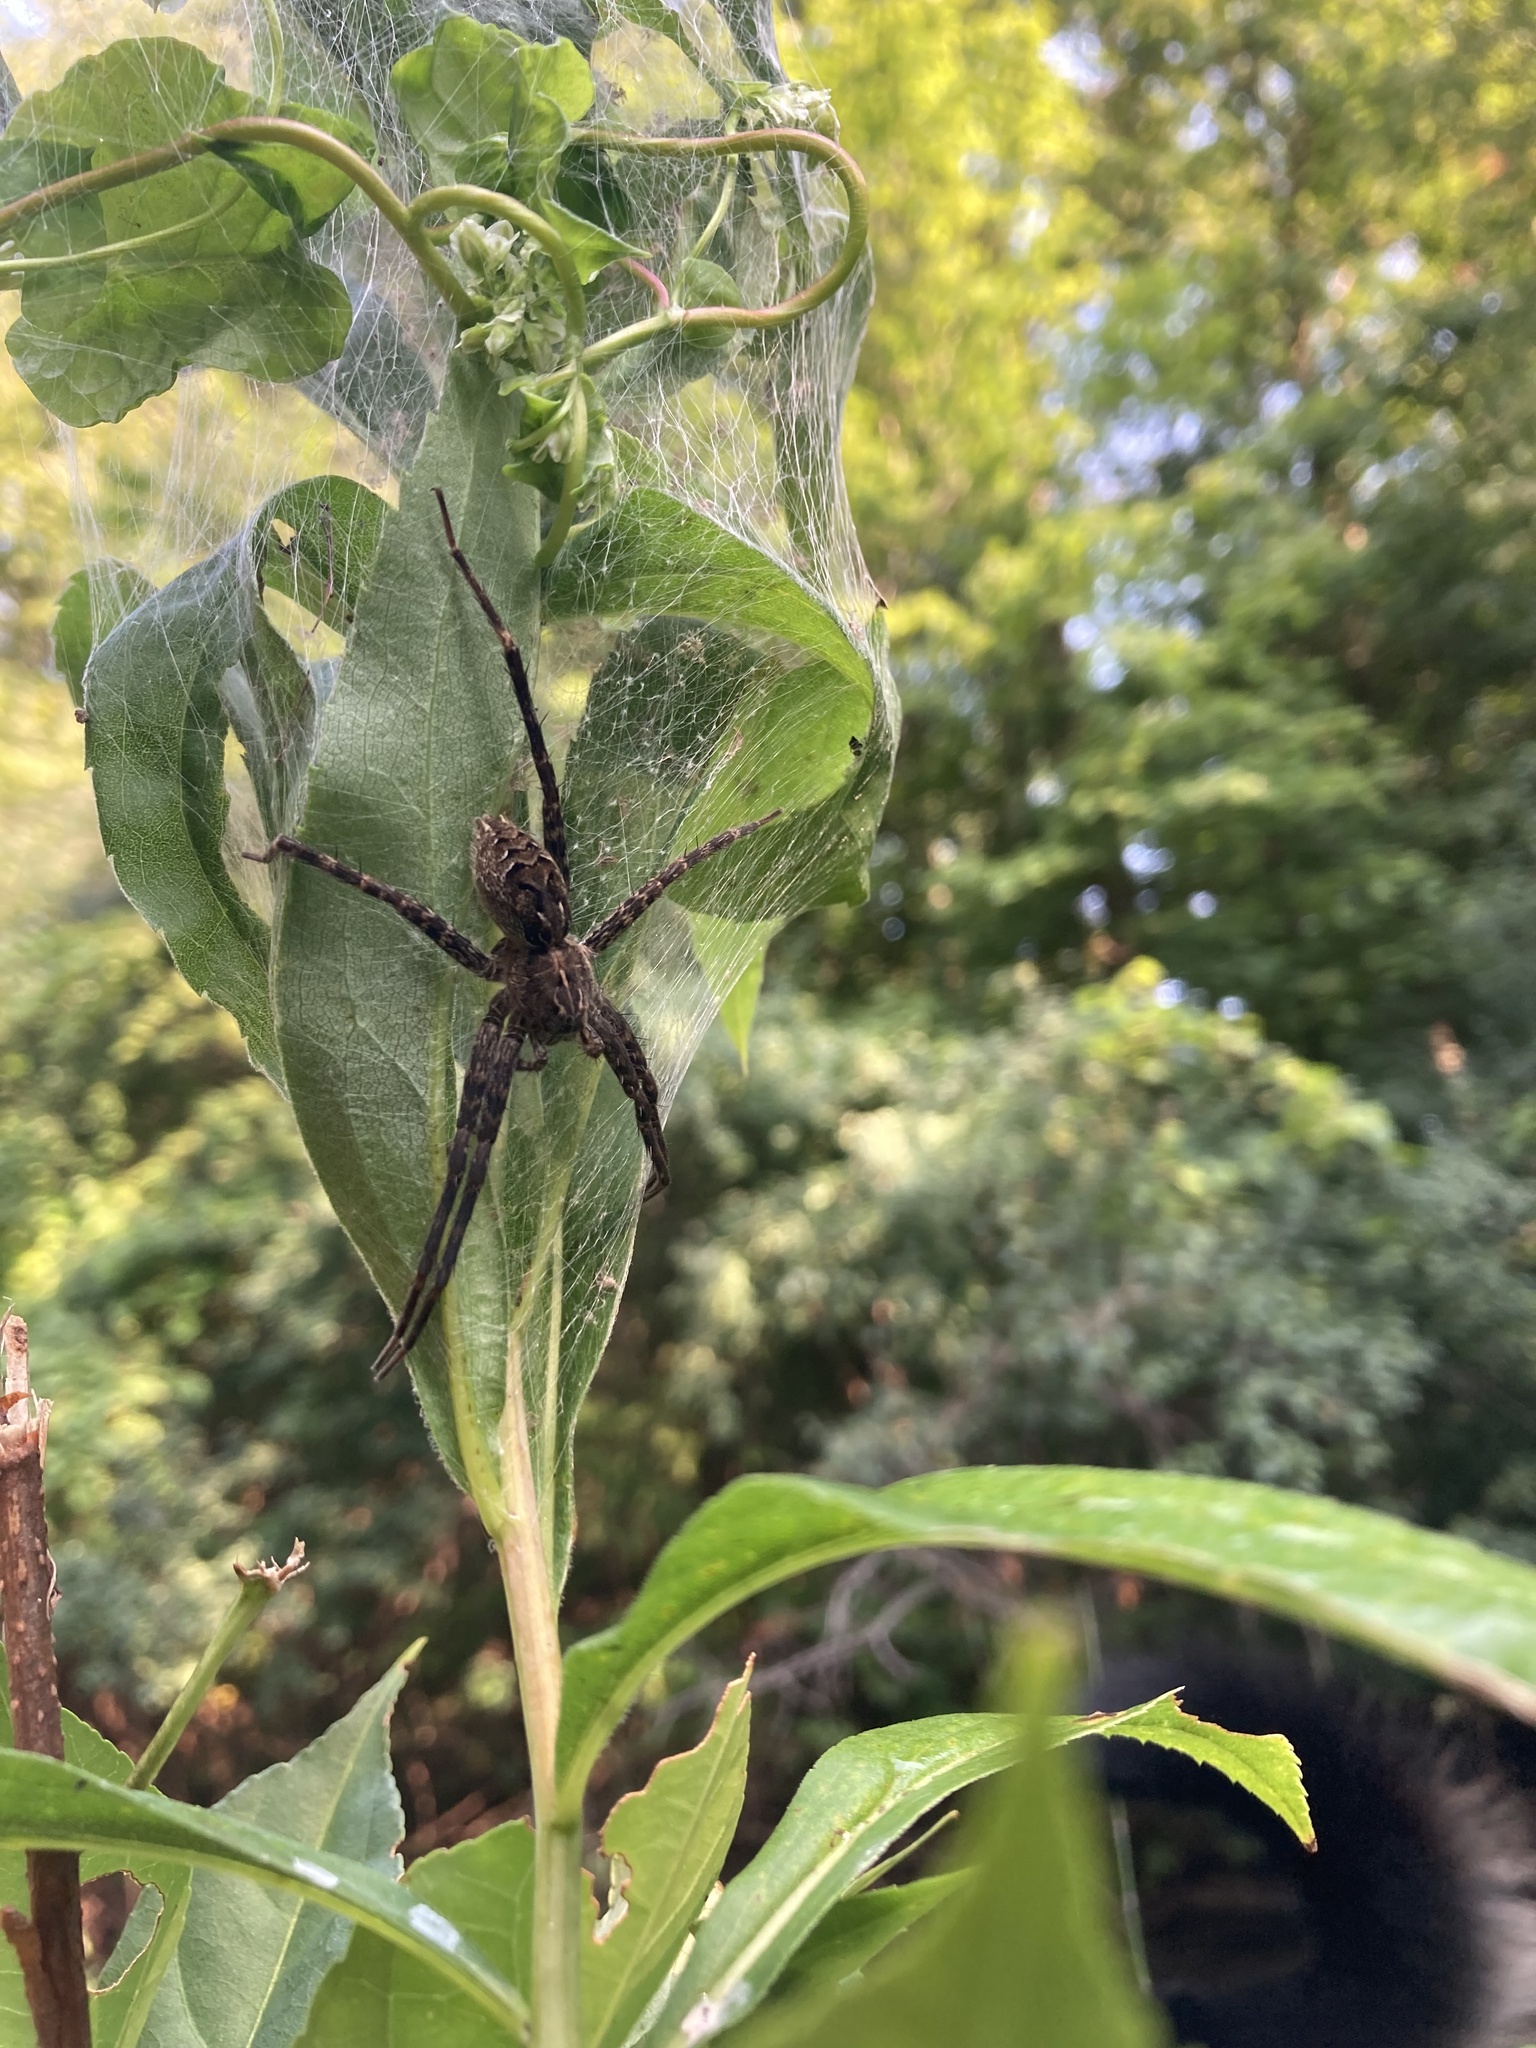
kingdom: Animalia
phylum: Arthropoda
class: Arachnida
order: Araneae
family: Pisauridae
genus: Dolomedes
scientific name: Dolomedes scriptus
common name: Striped fishing spider
